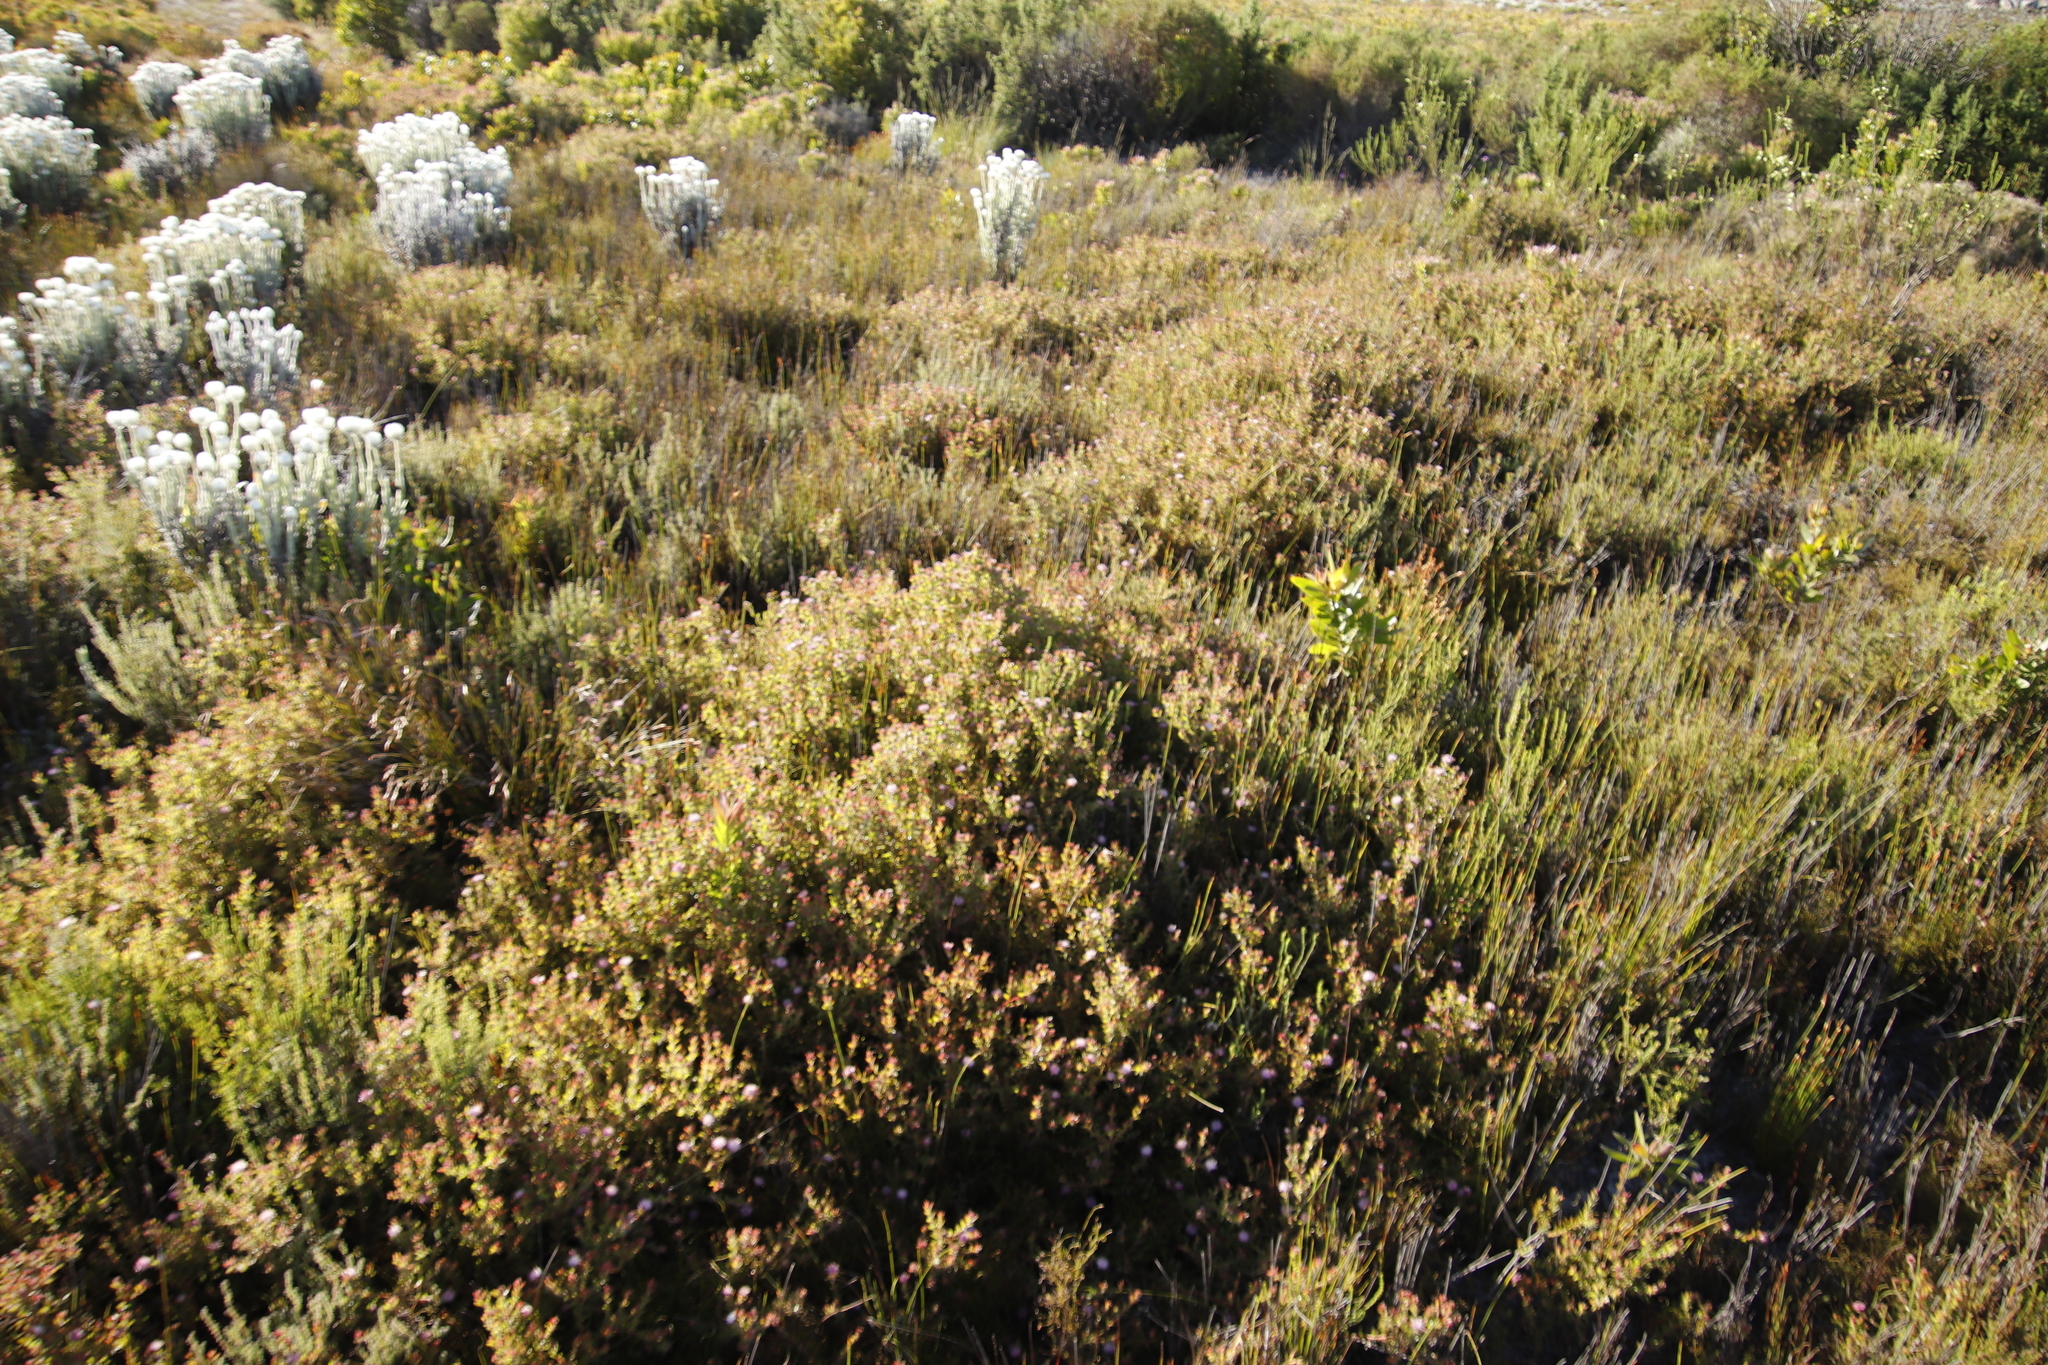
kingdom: Plantae
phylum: Tracheophyta
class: Magnoliopsida
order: Proteales
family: Proteaceae
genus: Diastella
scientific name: Diastella divaricata
